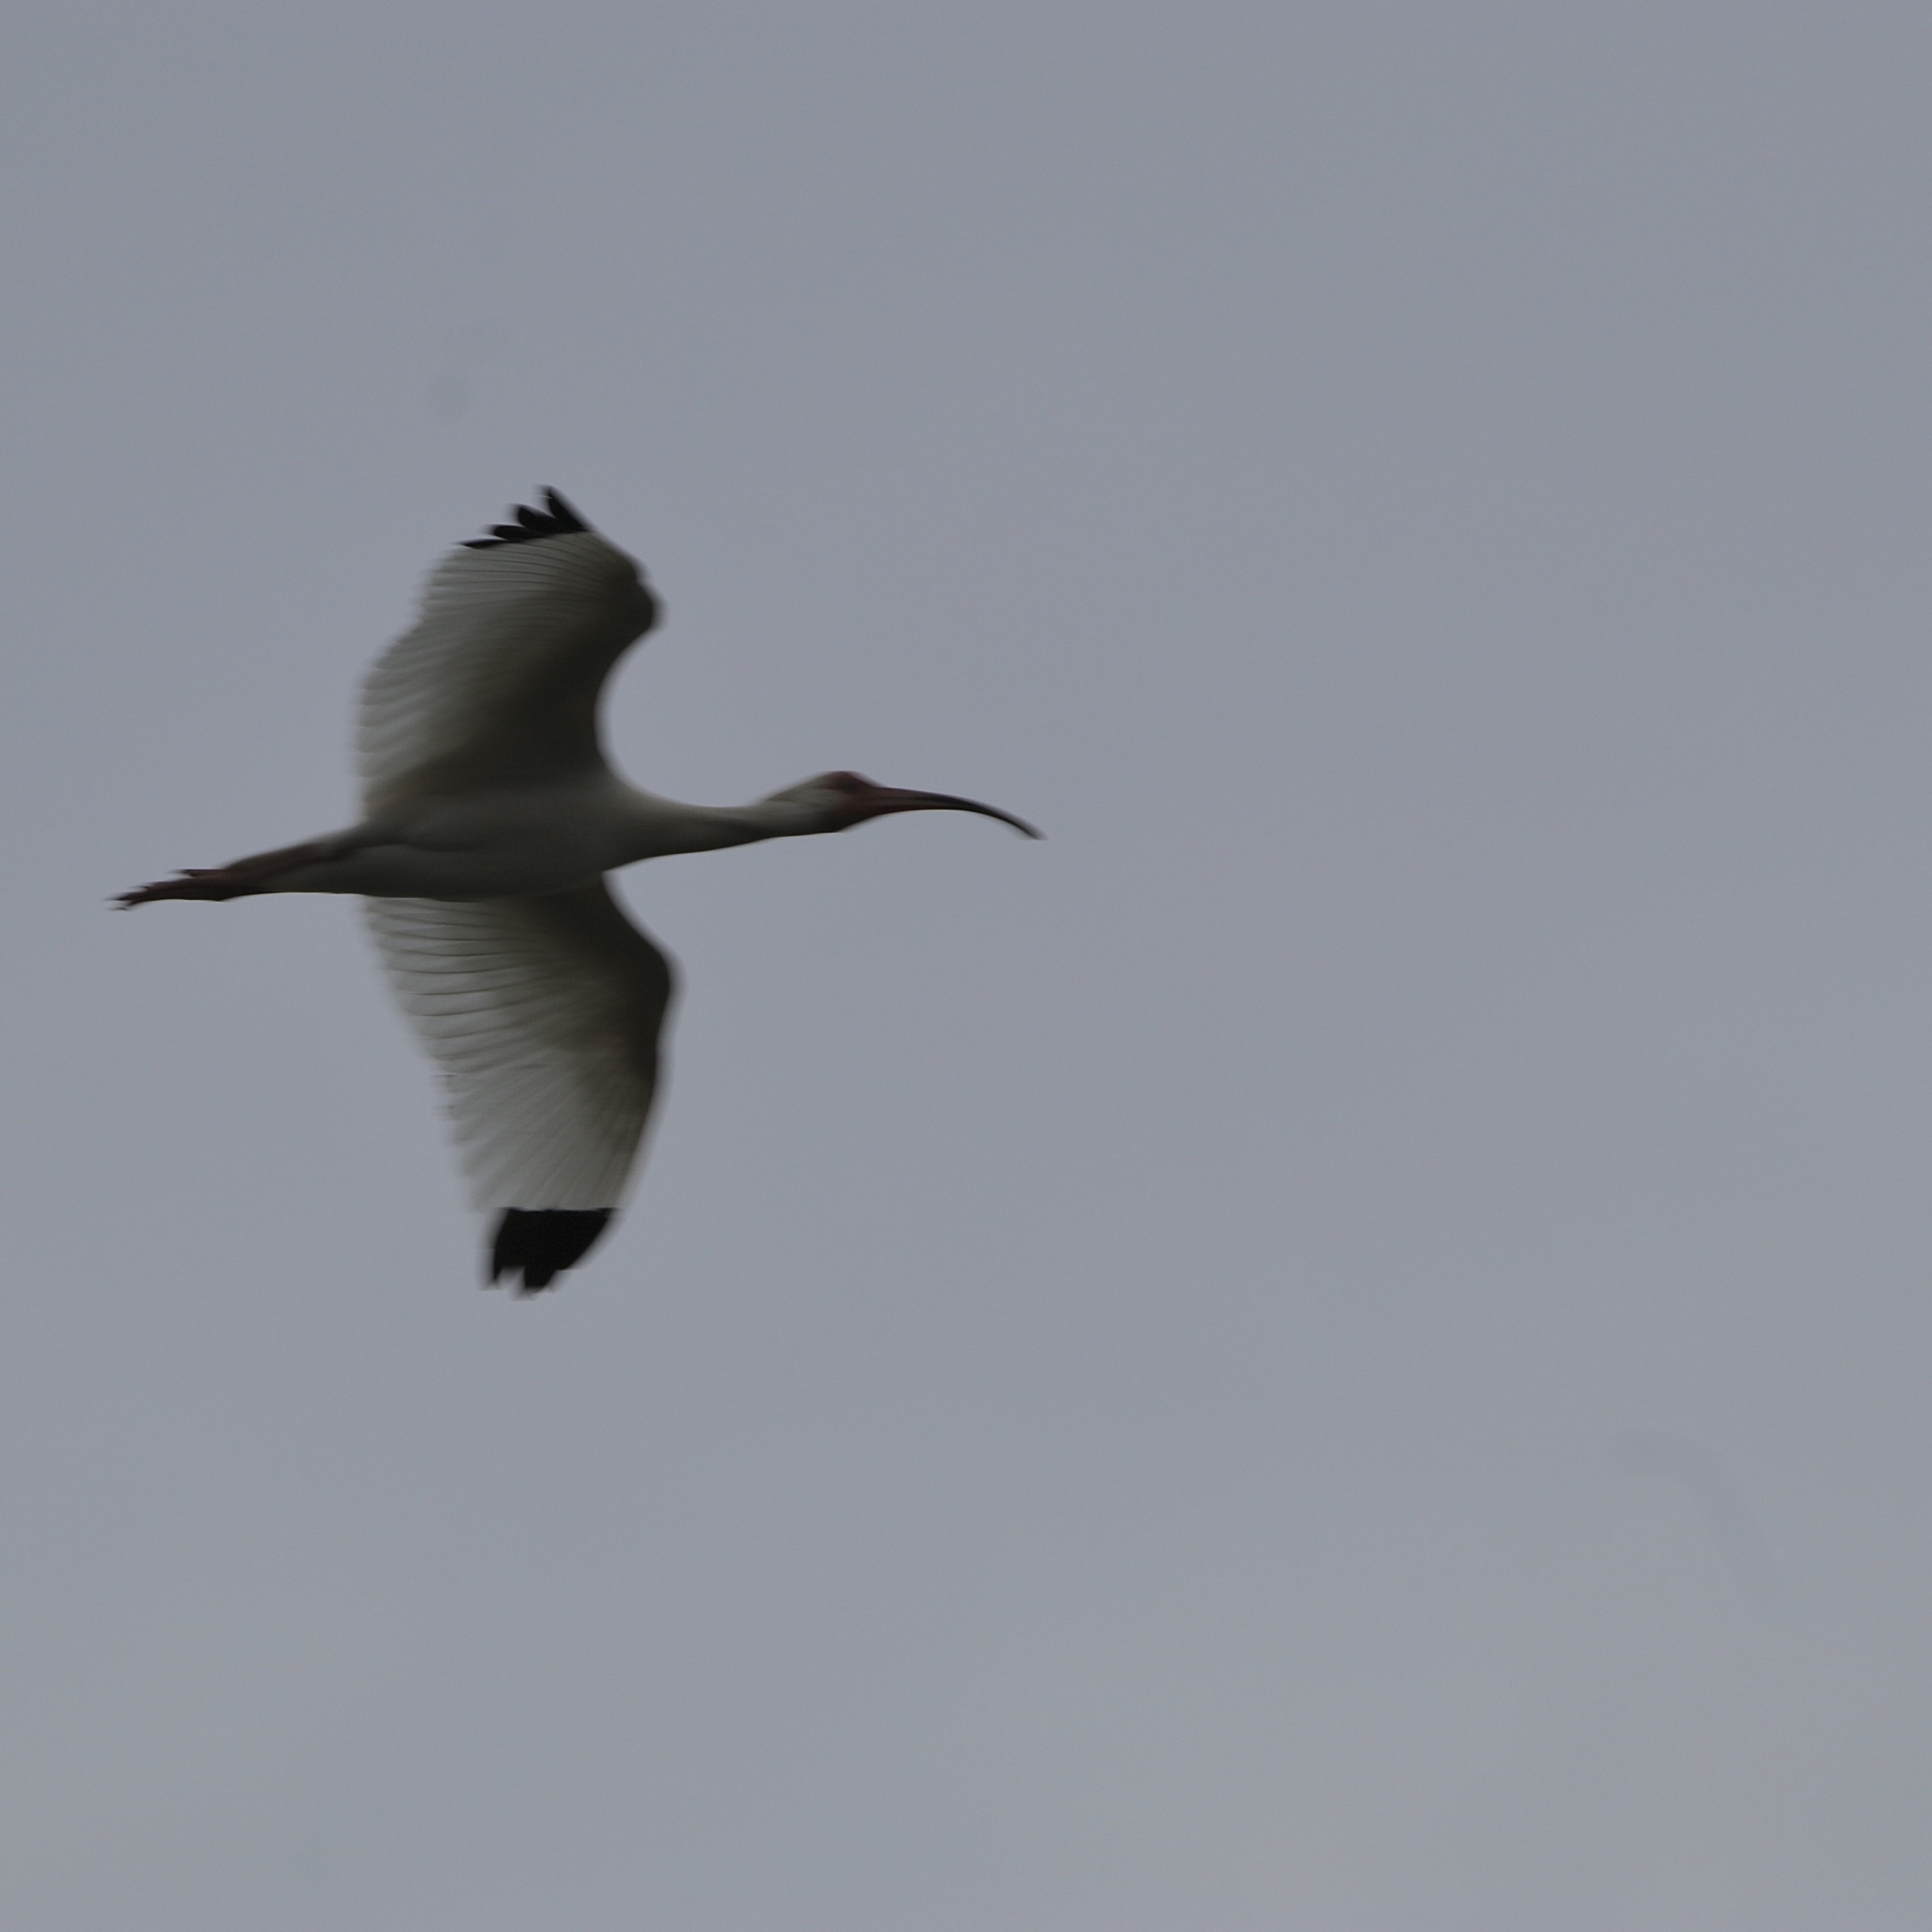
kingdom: Animalia
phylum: Chordata
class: Aves
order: Pelecaniformes
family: Threskiornithidae
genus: Eudocimus
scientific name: Eudocimus albus
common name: White ibis
